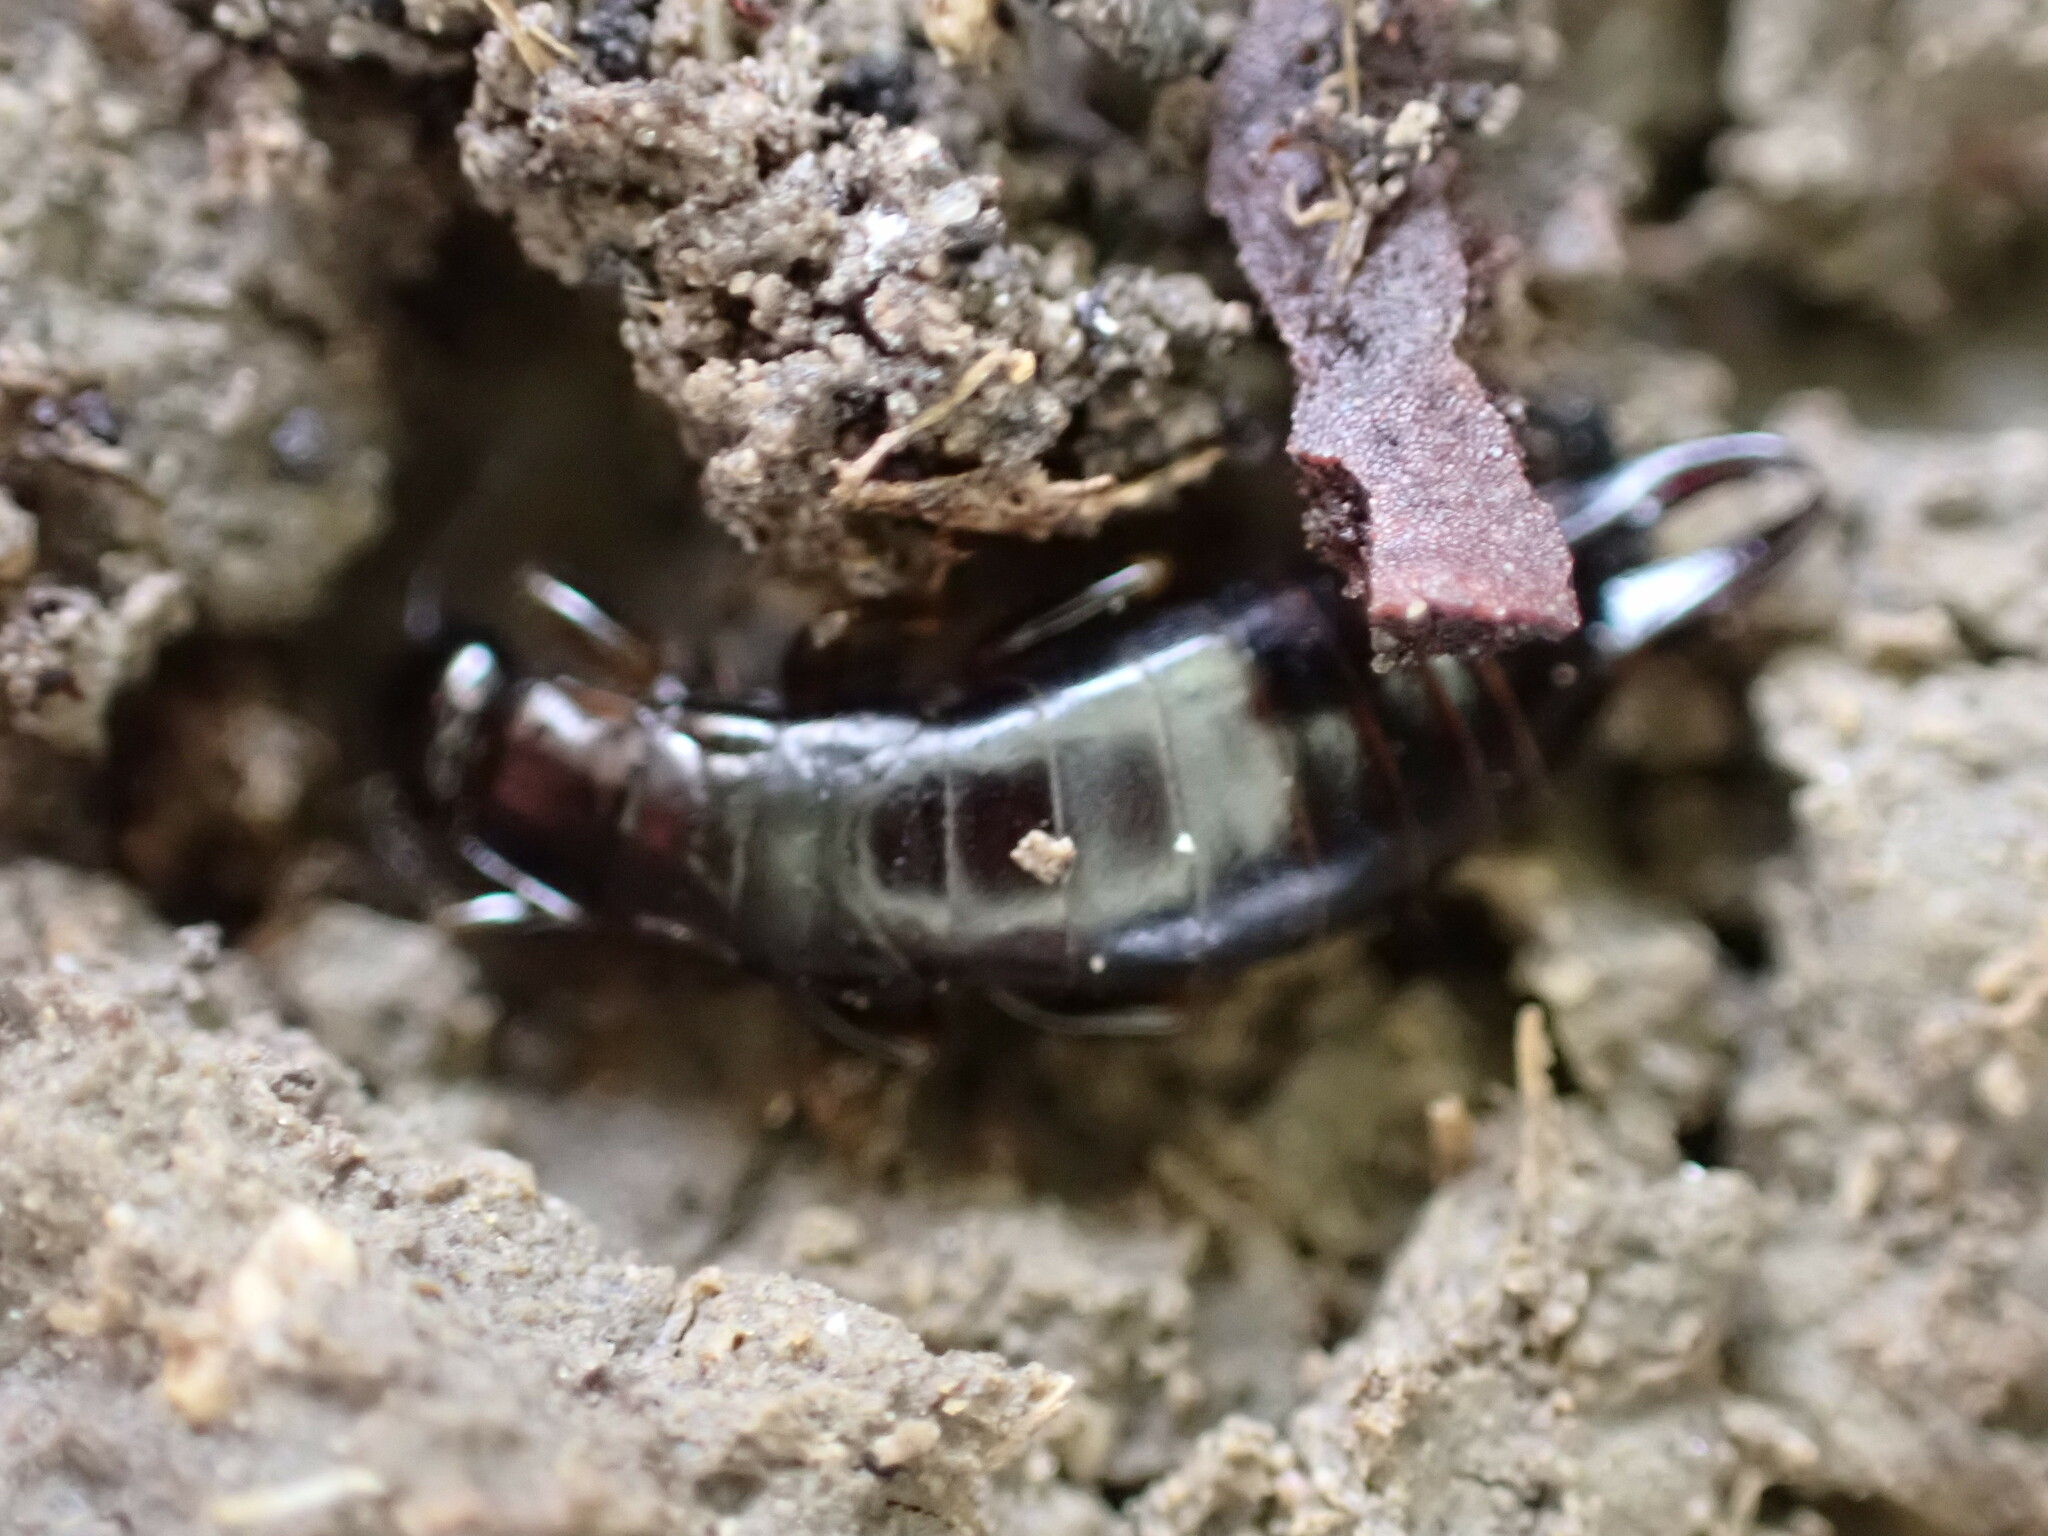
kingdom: Animalia
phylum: Arthropoda
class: Insecta
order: Dermaptera
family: Anisolabididae
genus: Euborellia
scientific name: Euborellia moesta
